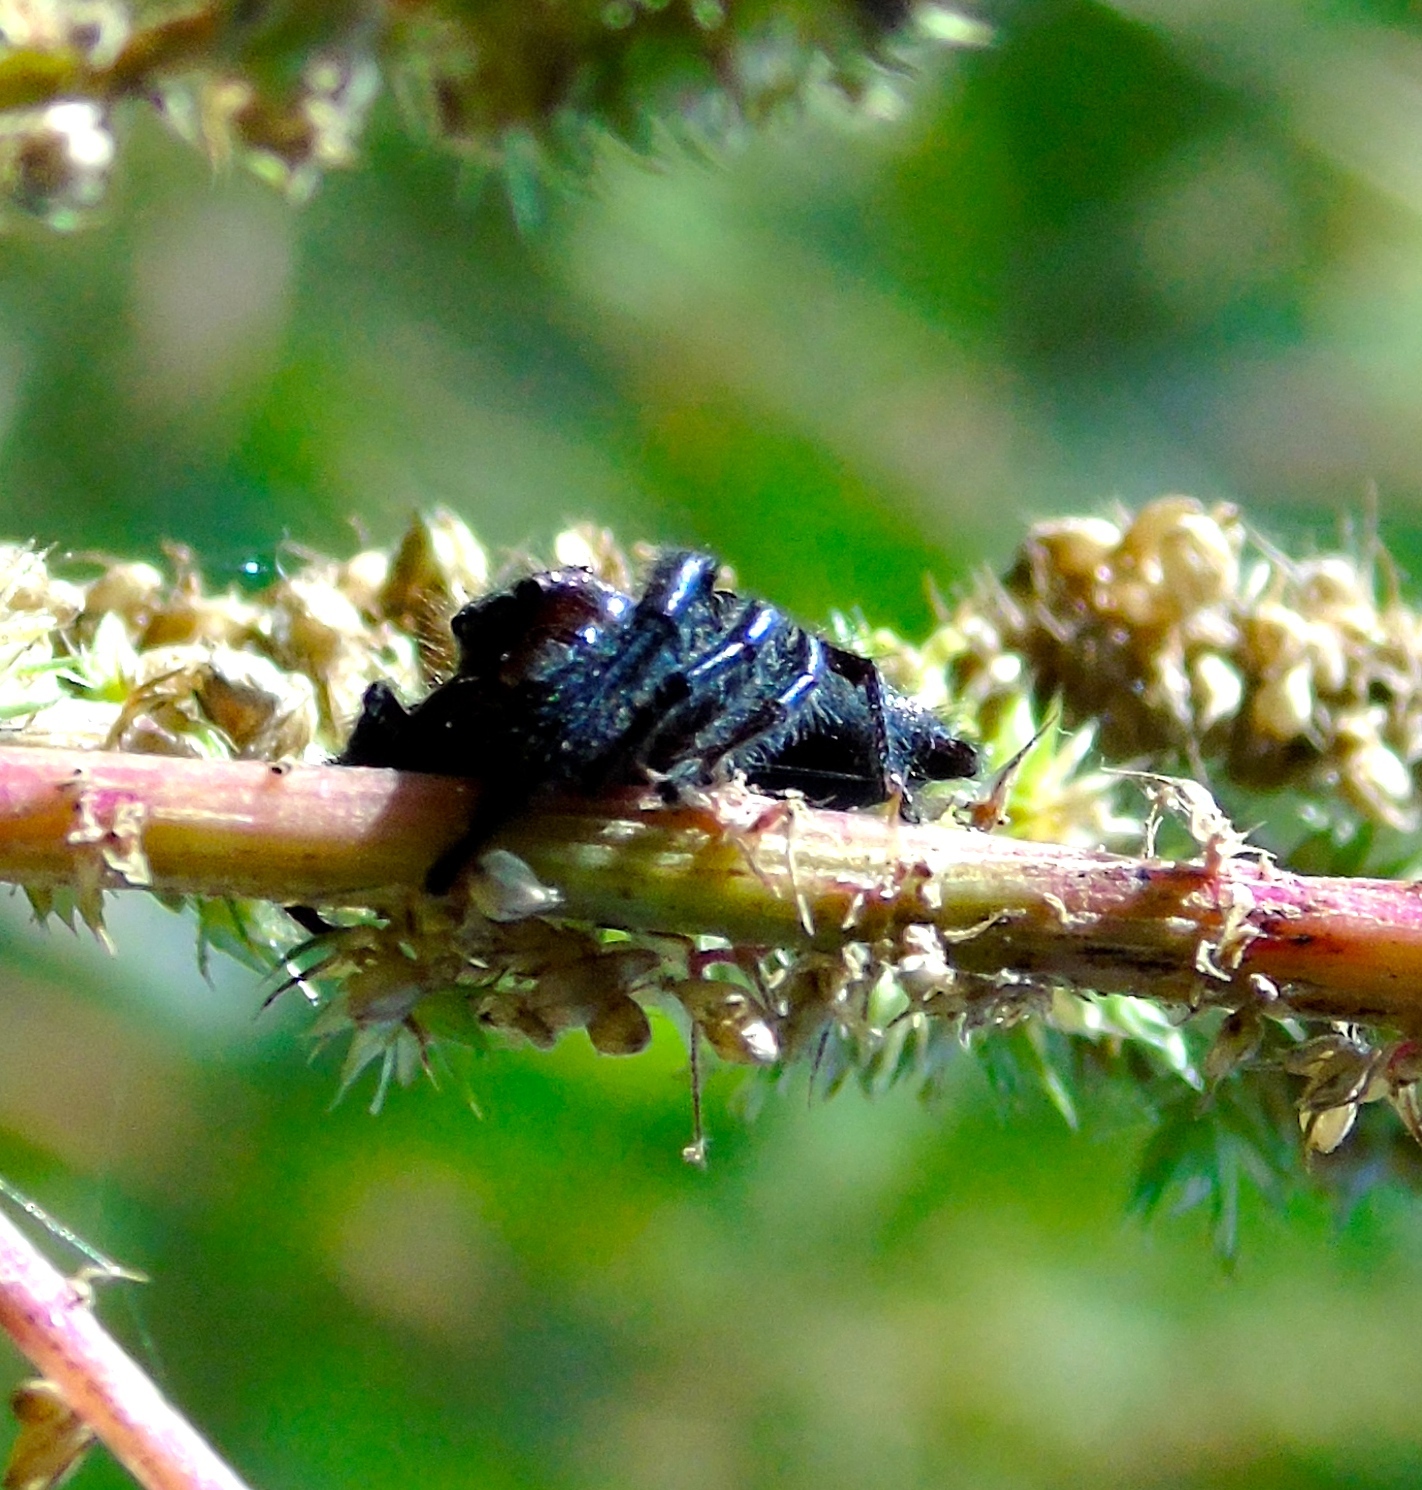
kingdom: Animalia
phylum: Arthropoda
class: Arachnida
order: Araneae
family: Salticidae
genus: Paraphidippus
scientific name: Paraphidippus
